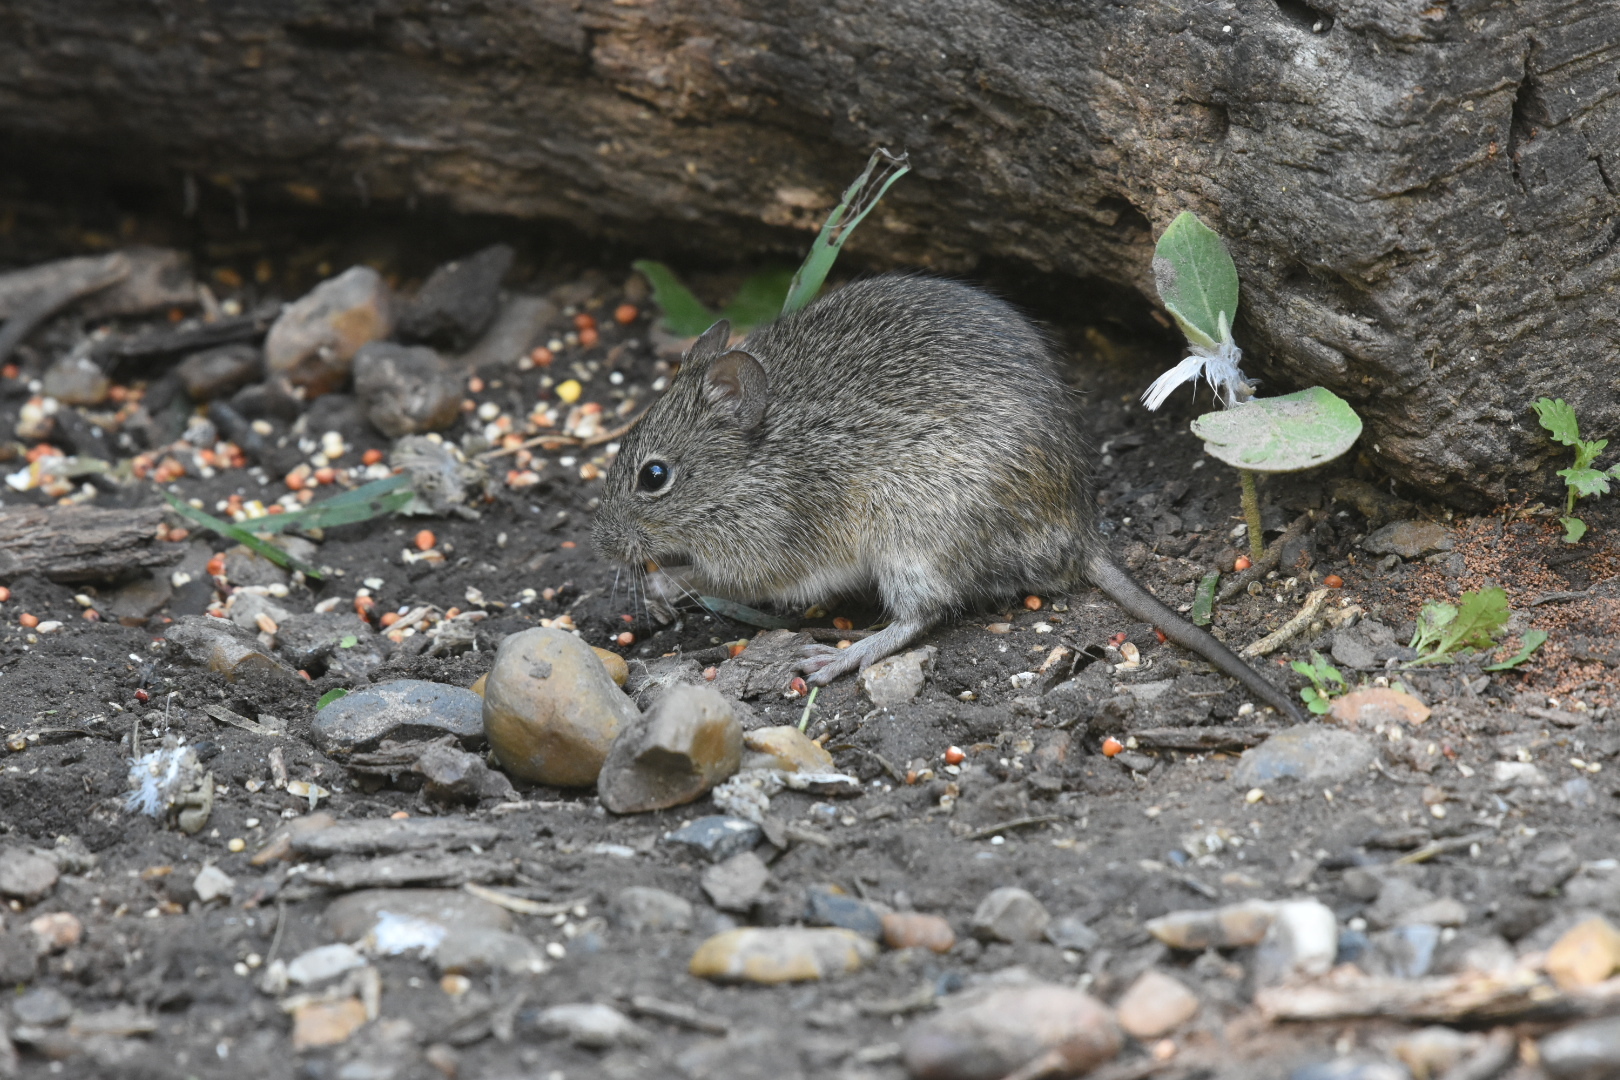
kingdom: Animalia
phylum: Chordata
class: Mammalia
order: Rodentia
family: Cricetidae
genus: Sigmodon
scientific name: Sigmodon hispidus
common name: Hispid cotton rat
